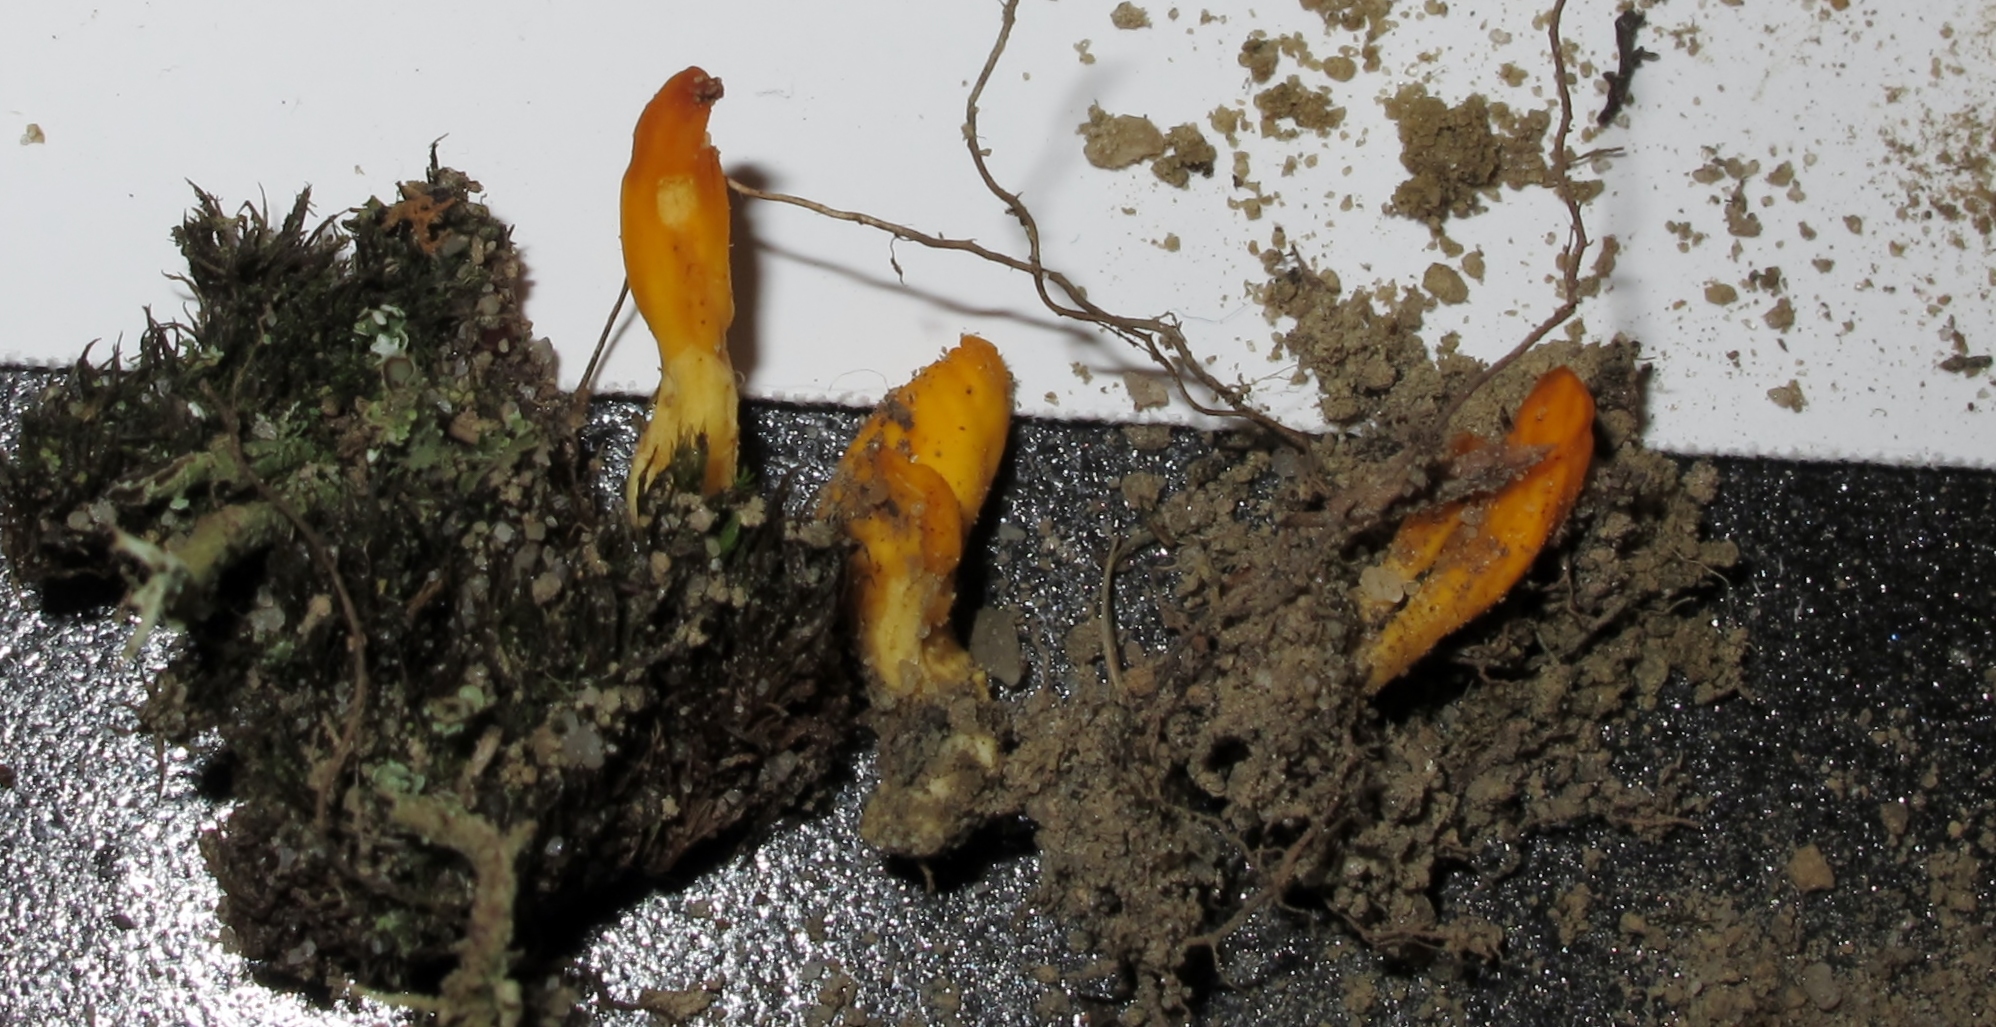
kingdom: Fungi
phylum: Ascomycota
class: Neolectomycetes
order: Neolectales
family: Neolectaceae
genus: Neolecta
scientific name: Neolecta vitellina
